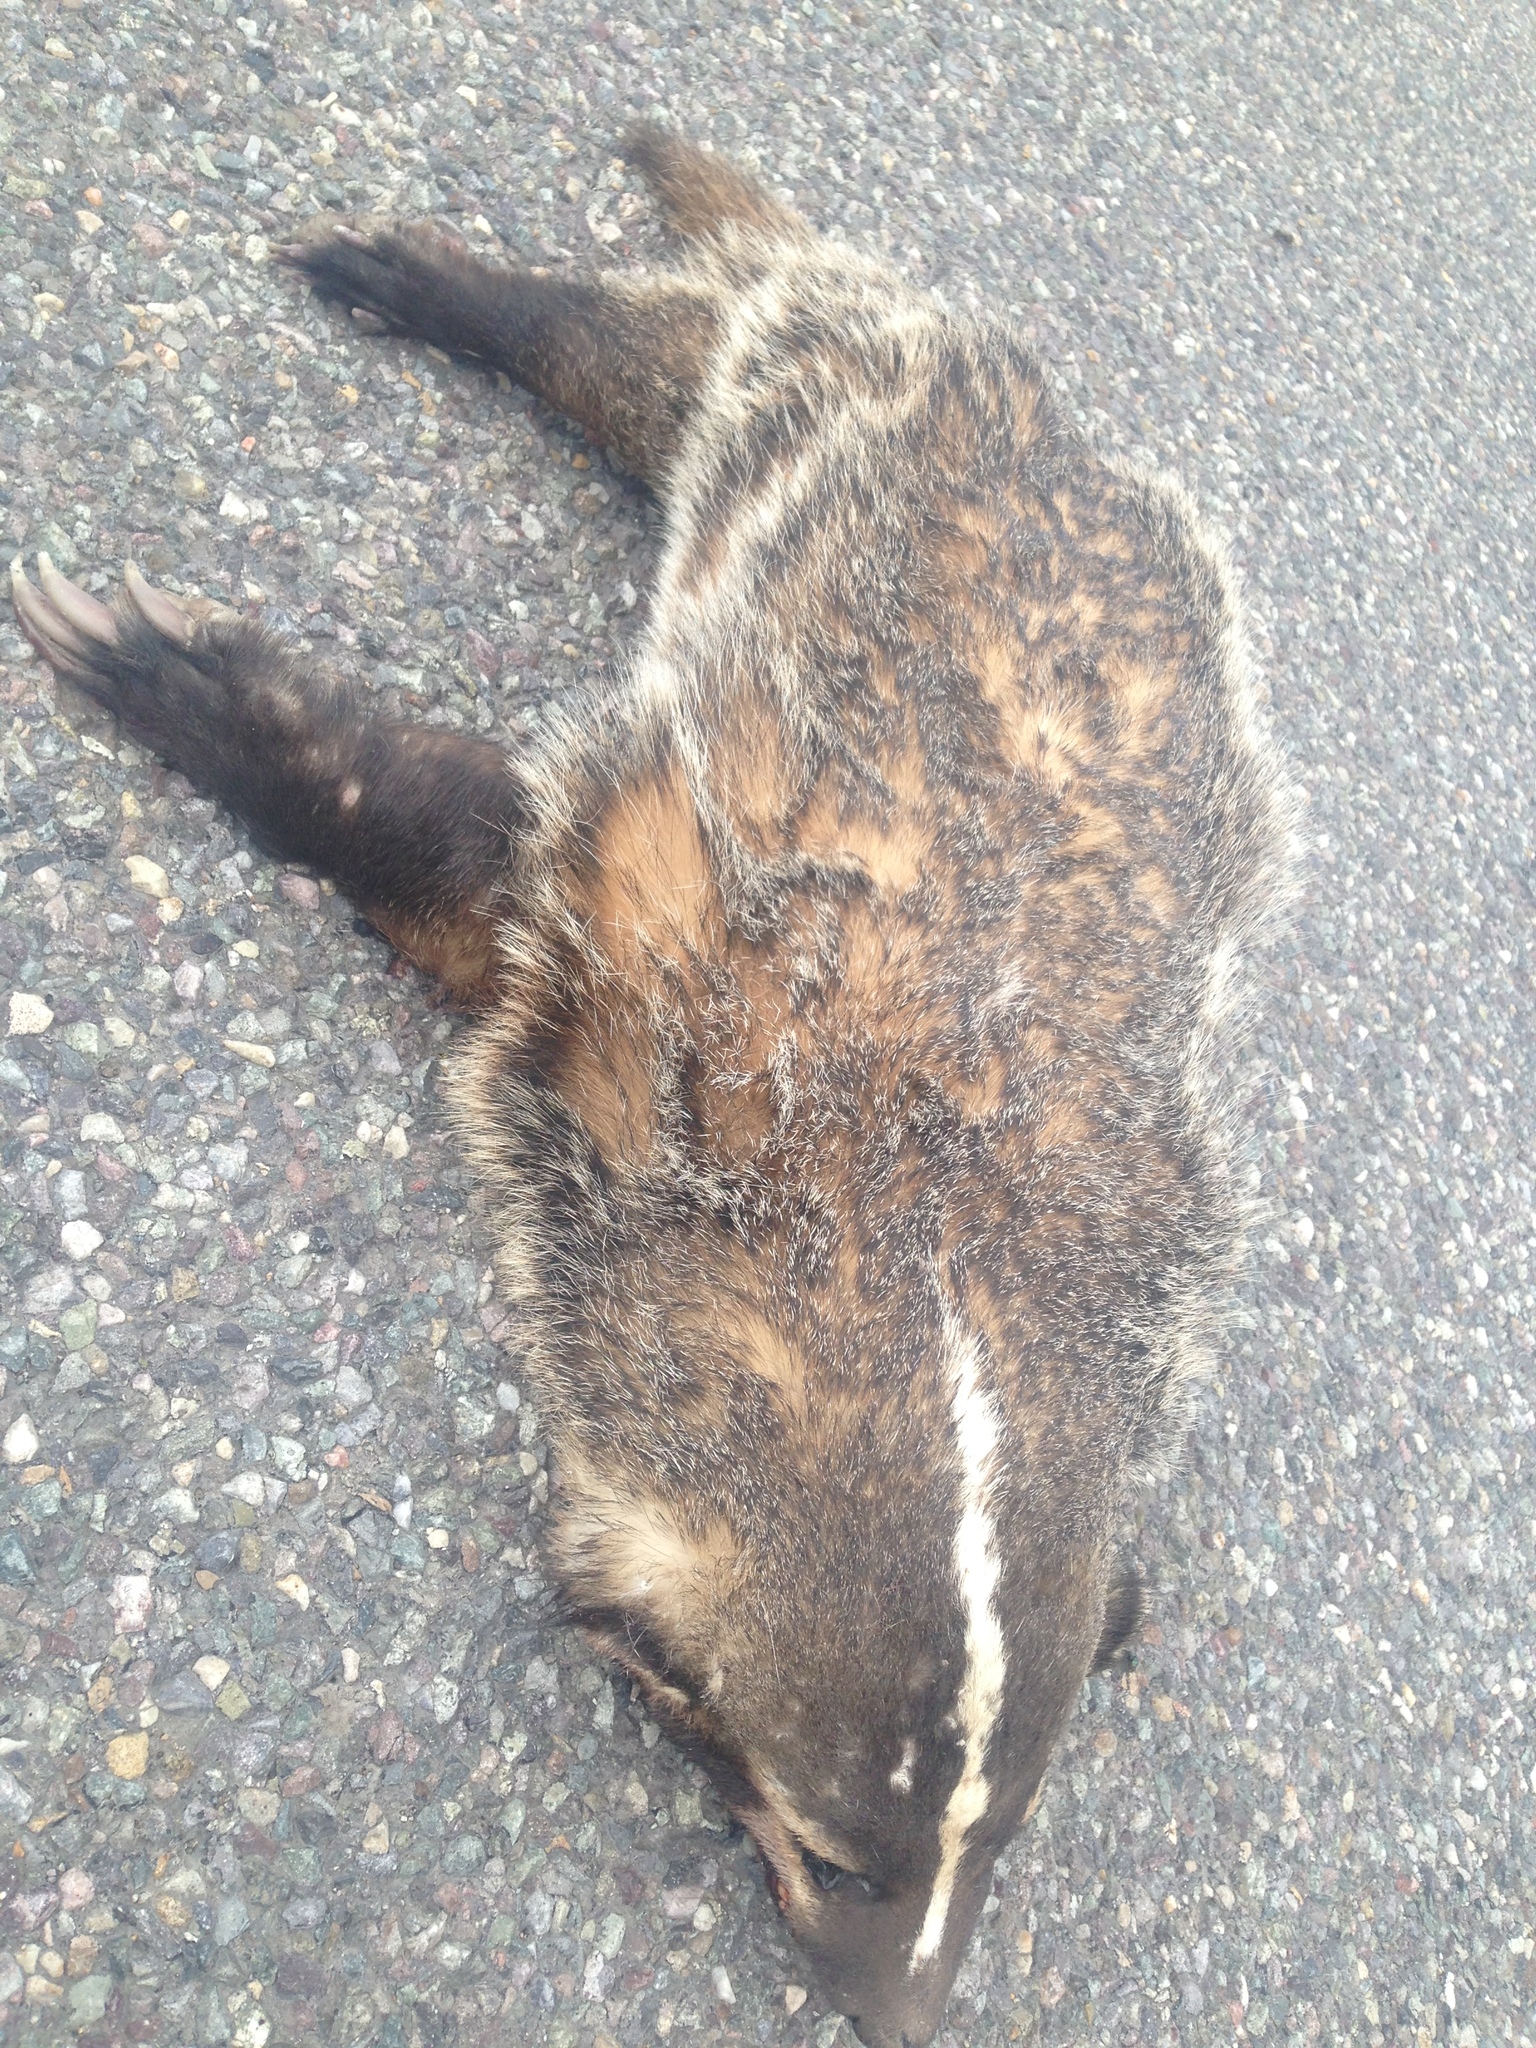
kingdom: Animalia
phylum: Chordata
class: Mammalia
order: Carnivora
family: Mustelidae
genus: Taxidea
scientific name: Taxidea taxus
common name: American badger
